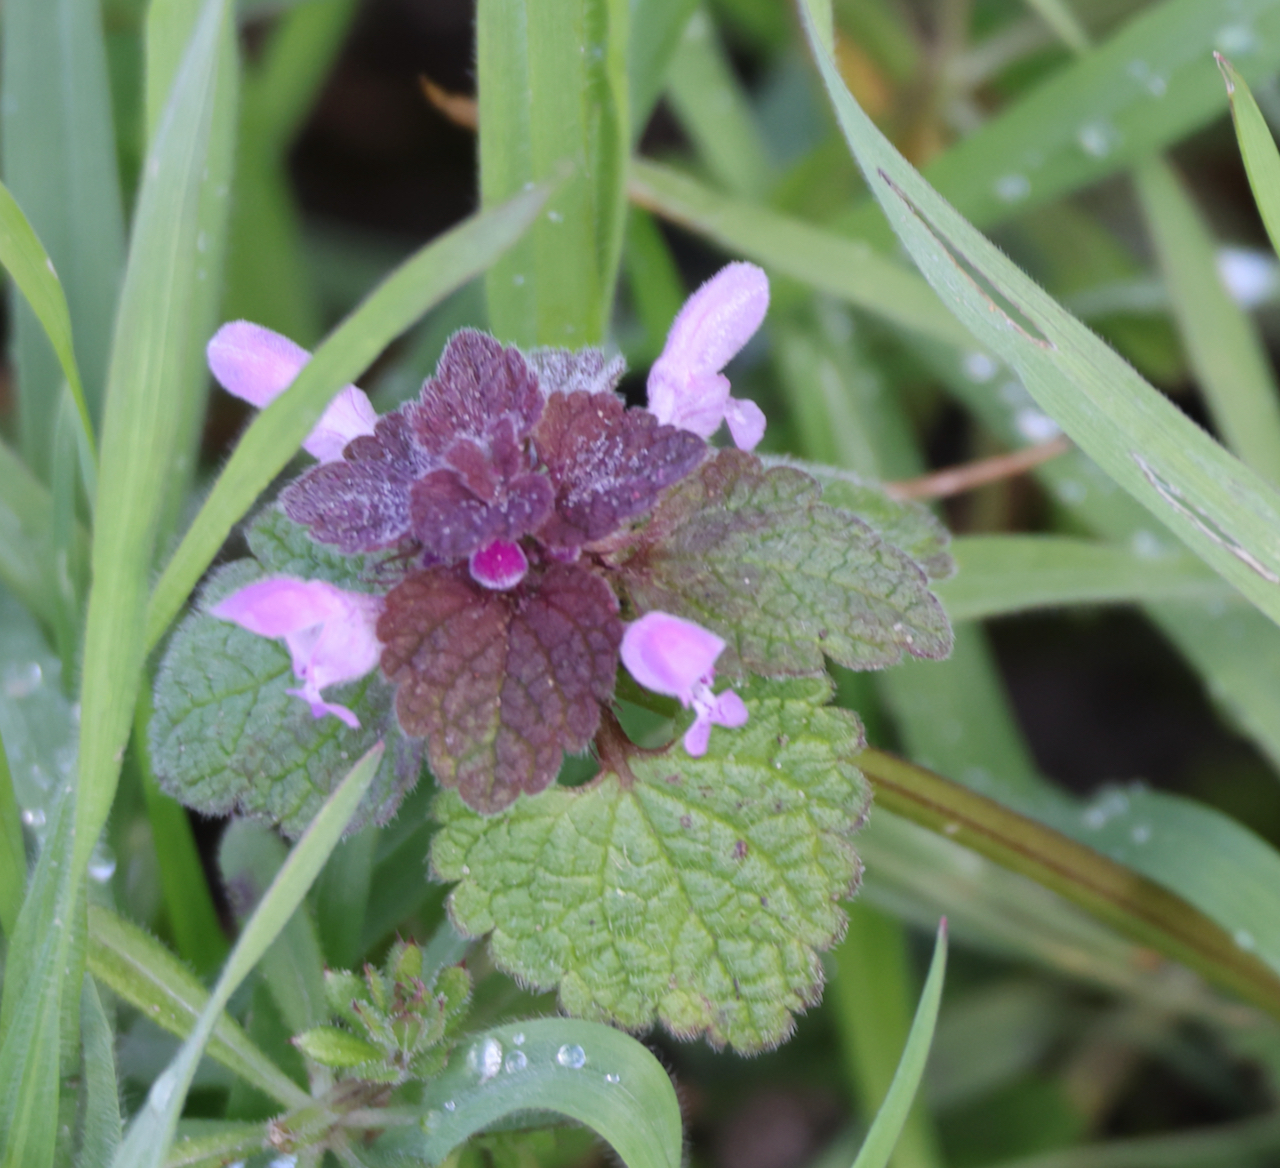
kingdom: Plantae
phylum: Tracheophyta
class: Magnoliopsida
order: Lamiales
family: Lamiaceae
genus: Lamium
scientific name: Lamium purpureum
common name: Red dead-nettle
